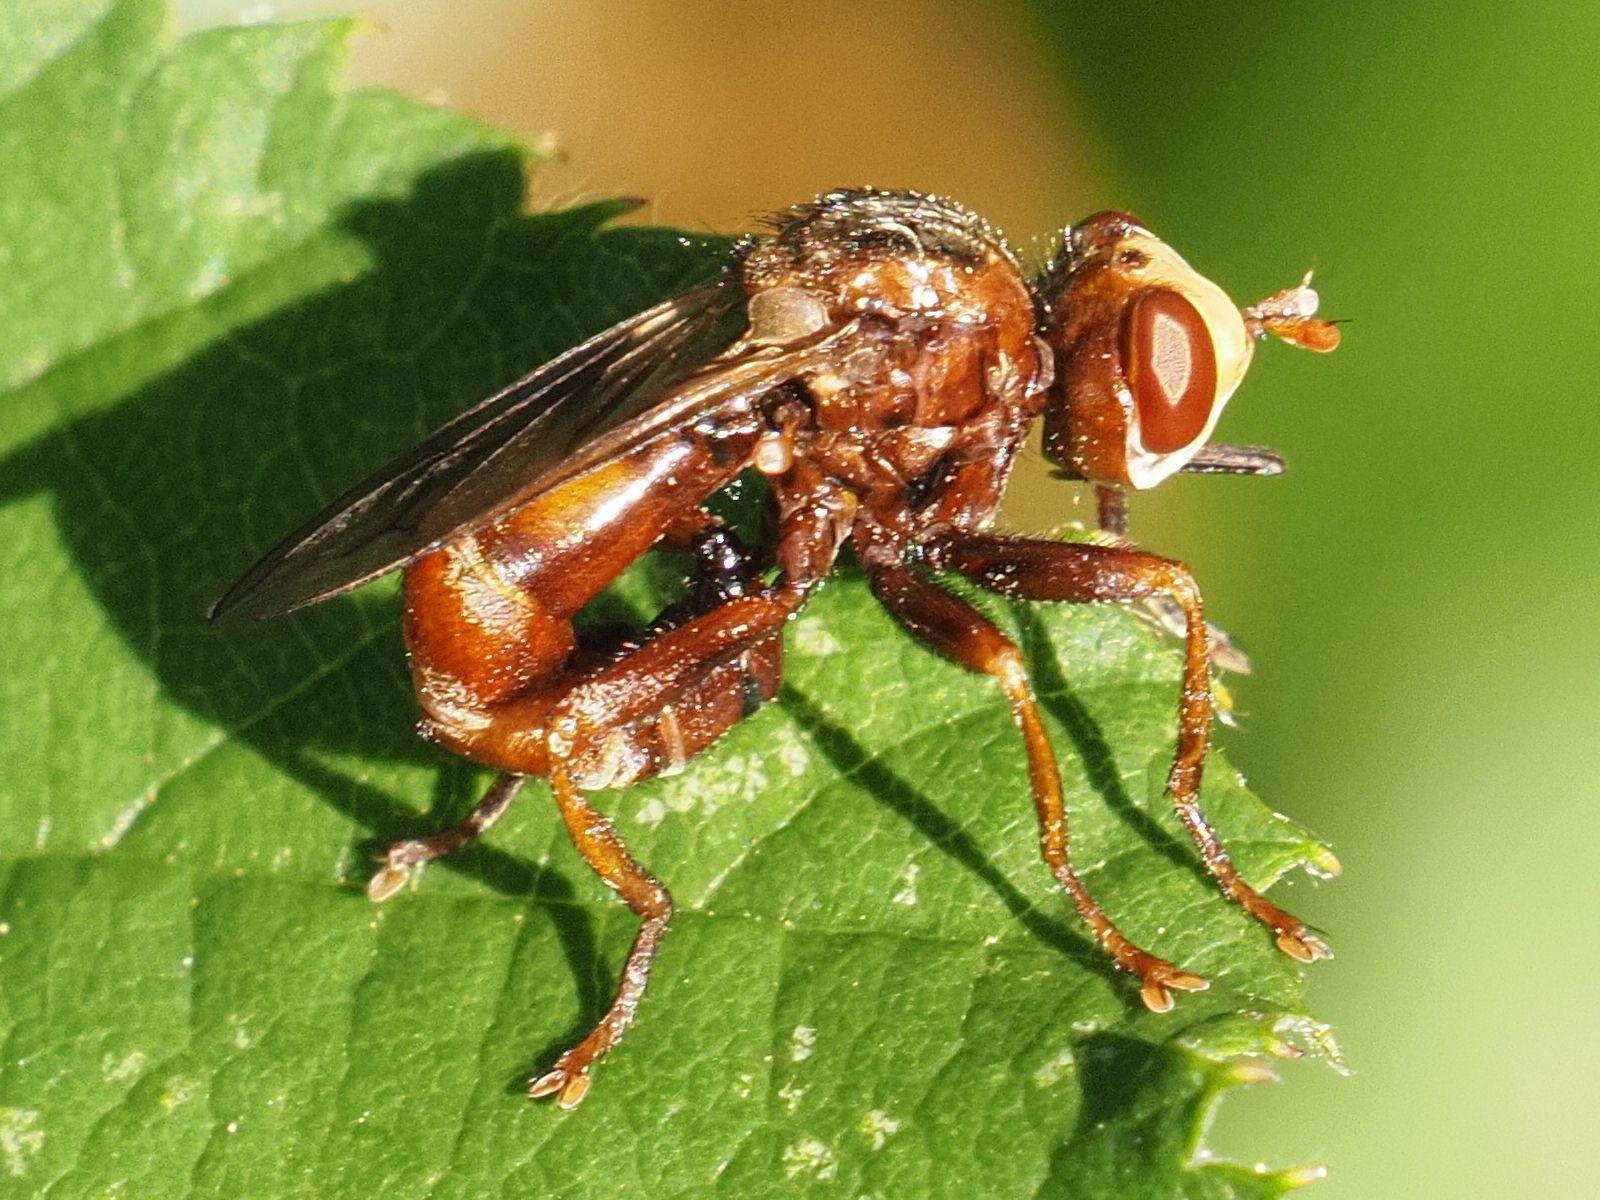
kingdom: Animalia
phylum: Arthropoda
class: Insecta
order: Diptera
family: Conopidae
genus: Sicus
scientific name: Sicus ferrugineus
